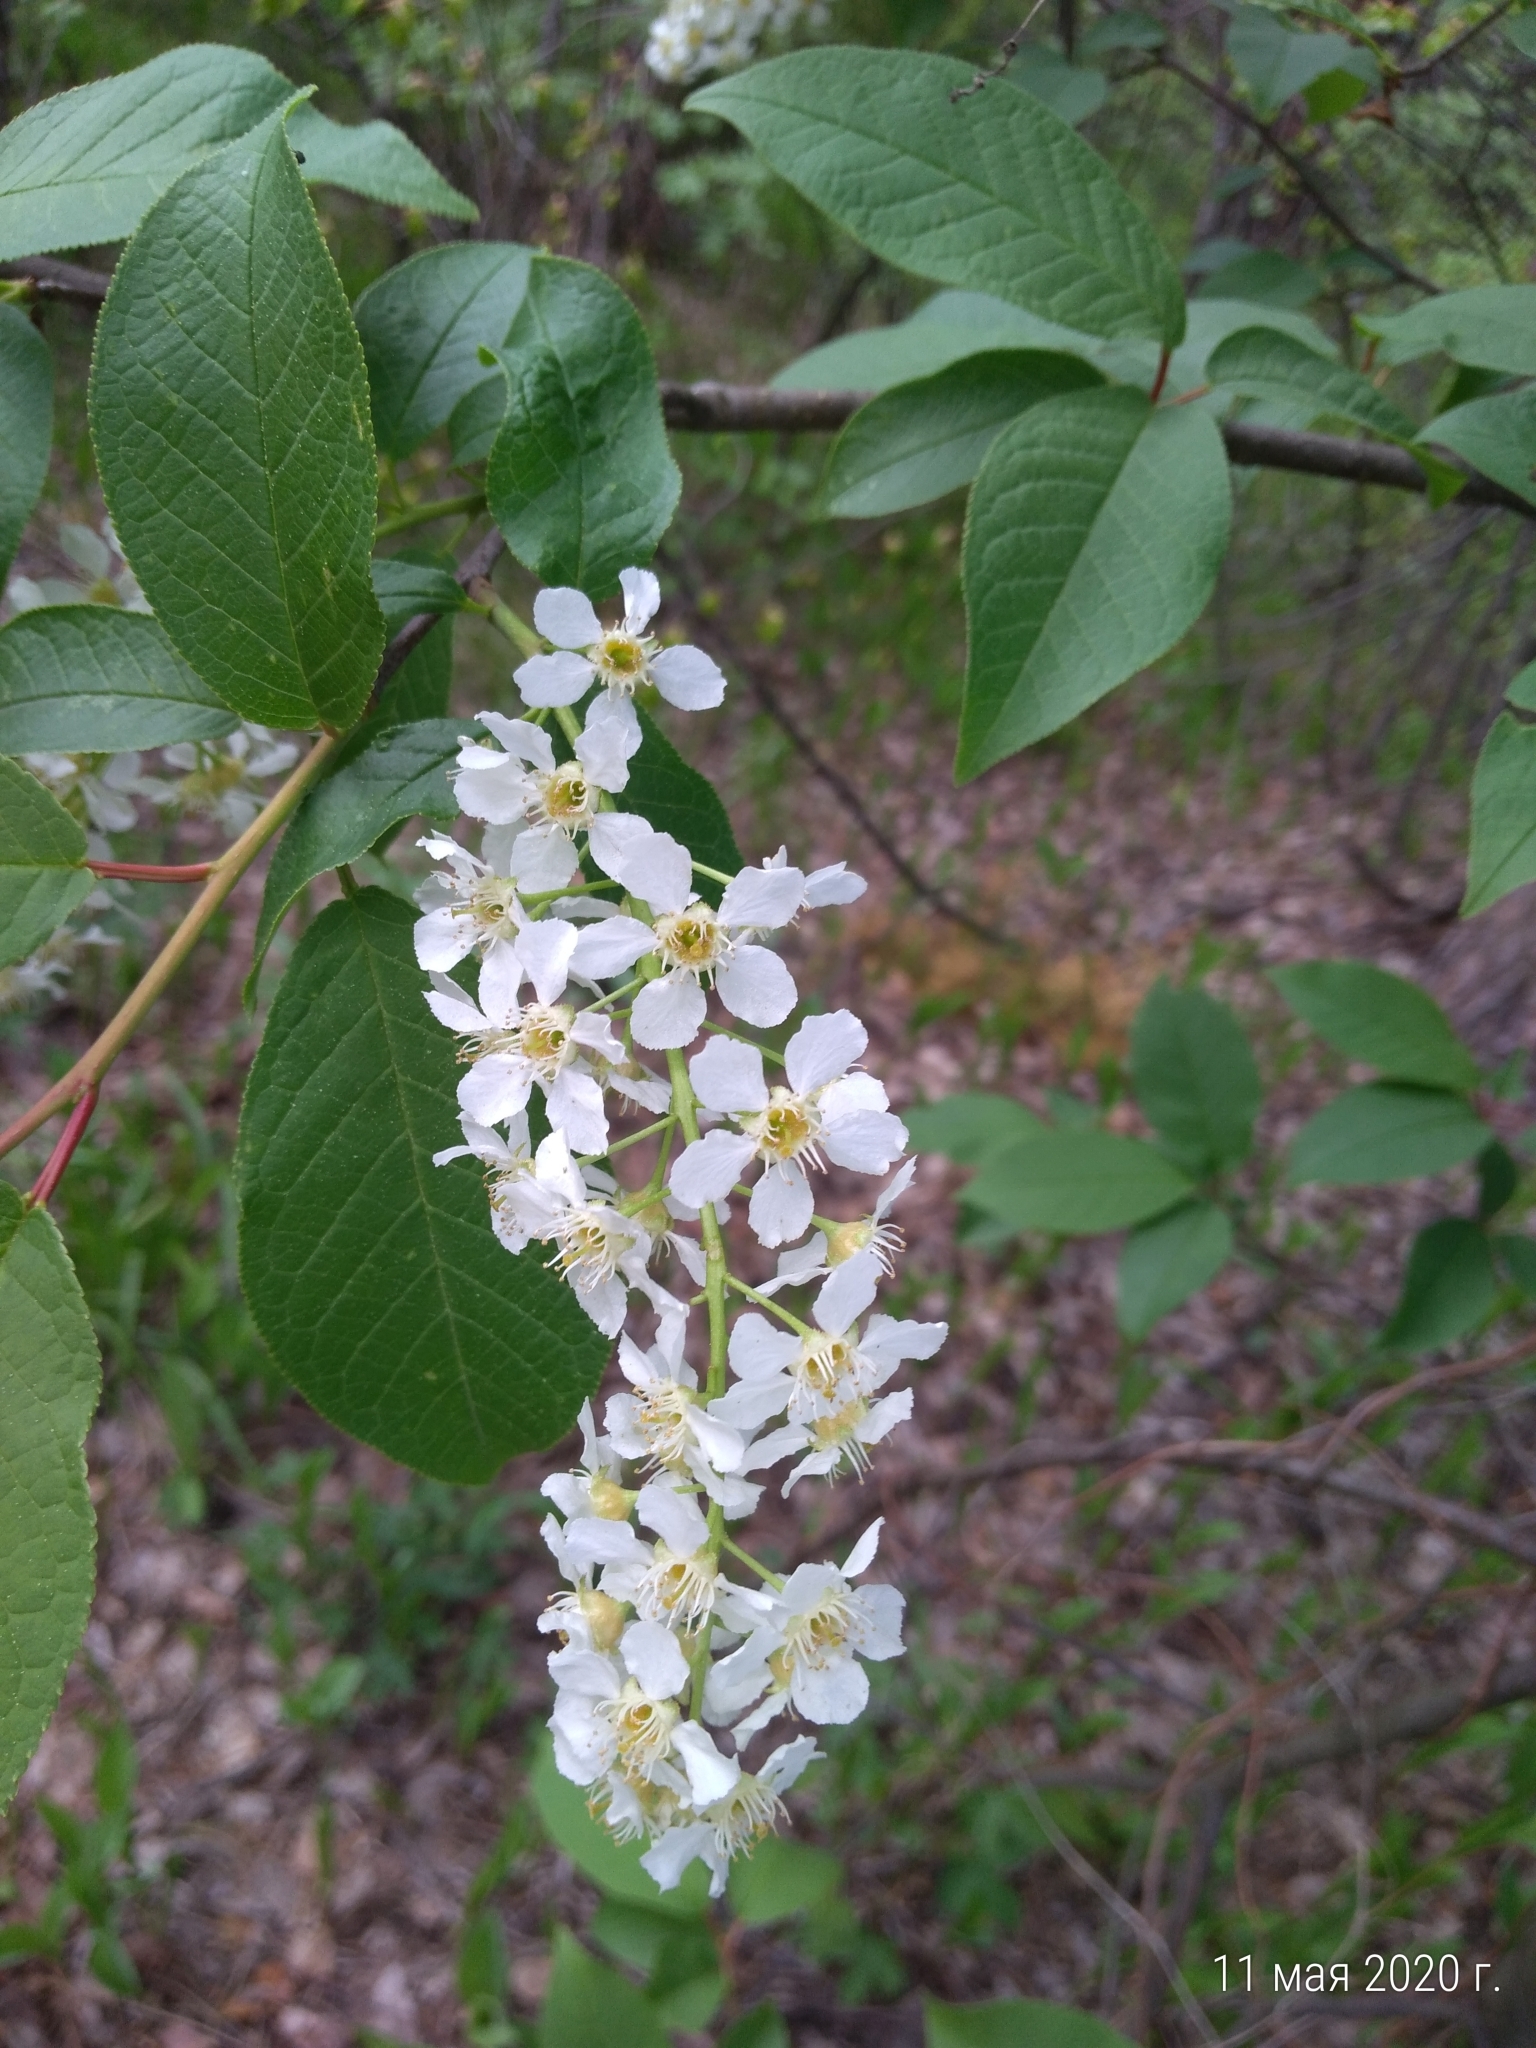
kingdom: Plantae
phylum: Tracheophyta
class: Magnoliopsida
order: Rosales
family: Rosaceae
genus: Prunus
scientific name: Prunus padus
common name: Bird cherry
